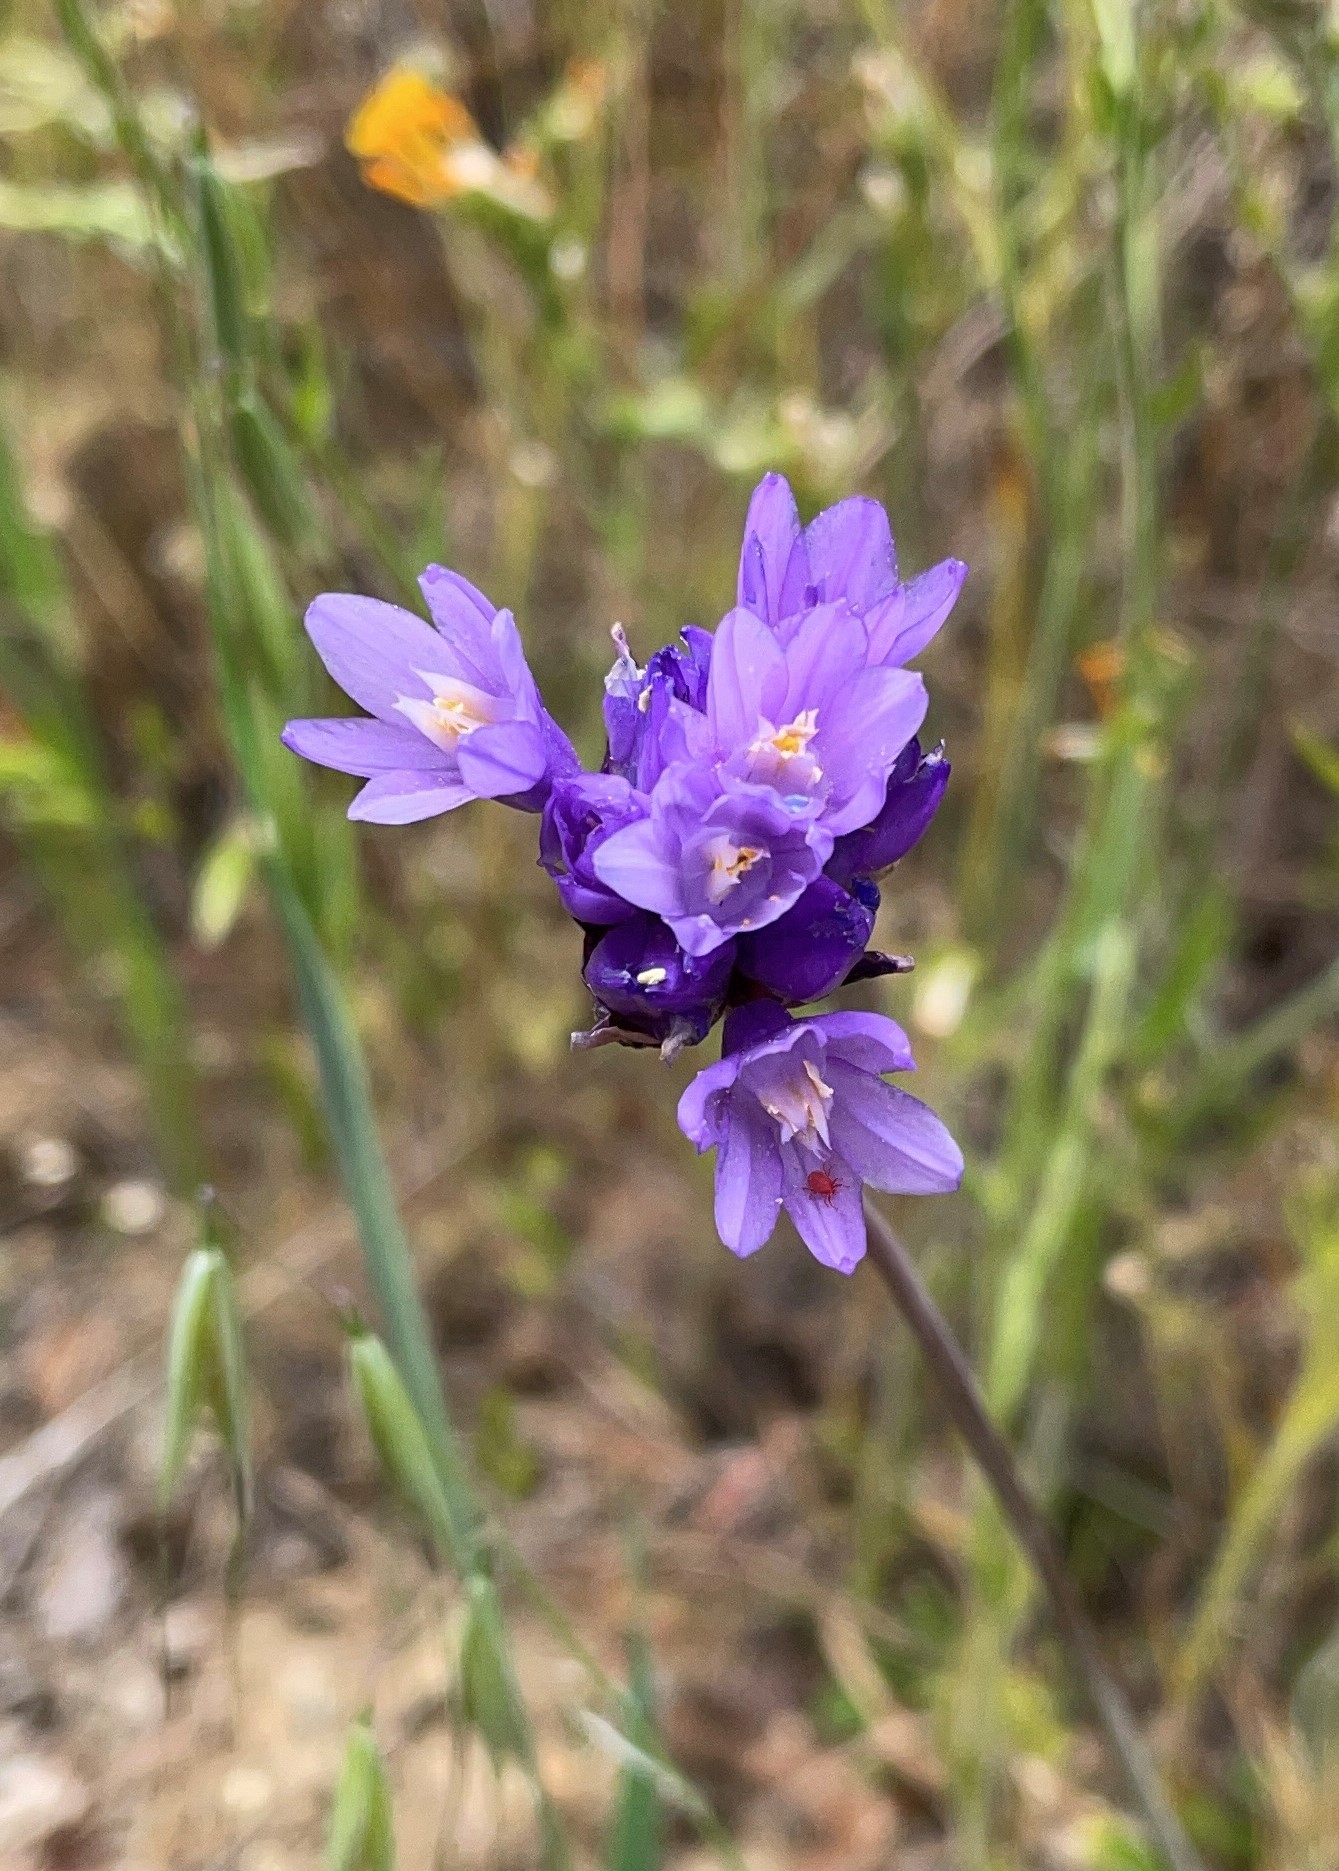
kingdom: Plantae
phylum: Tracheophyta
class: Liliopsida
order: Asparagales
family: Asparagaceae
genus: Dipterostemon
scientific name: Dipterostemon capitatus
